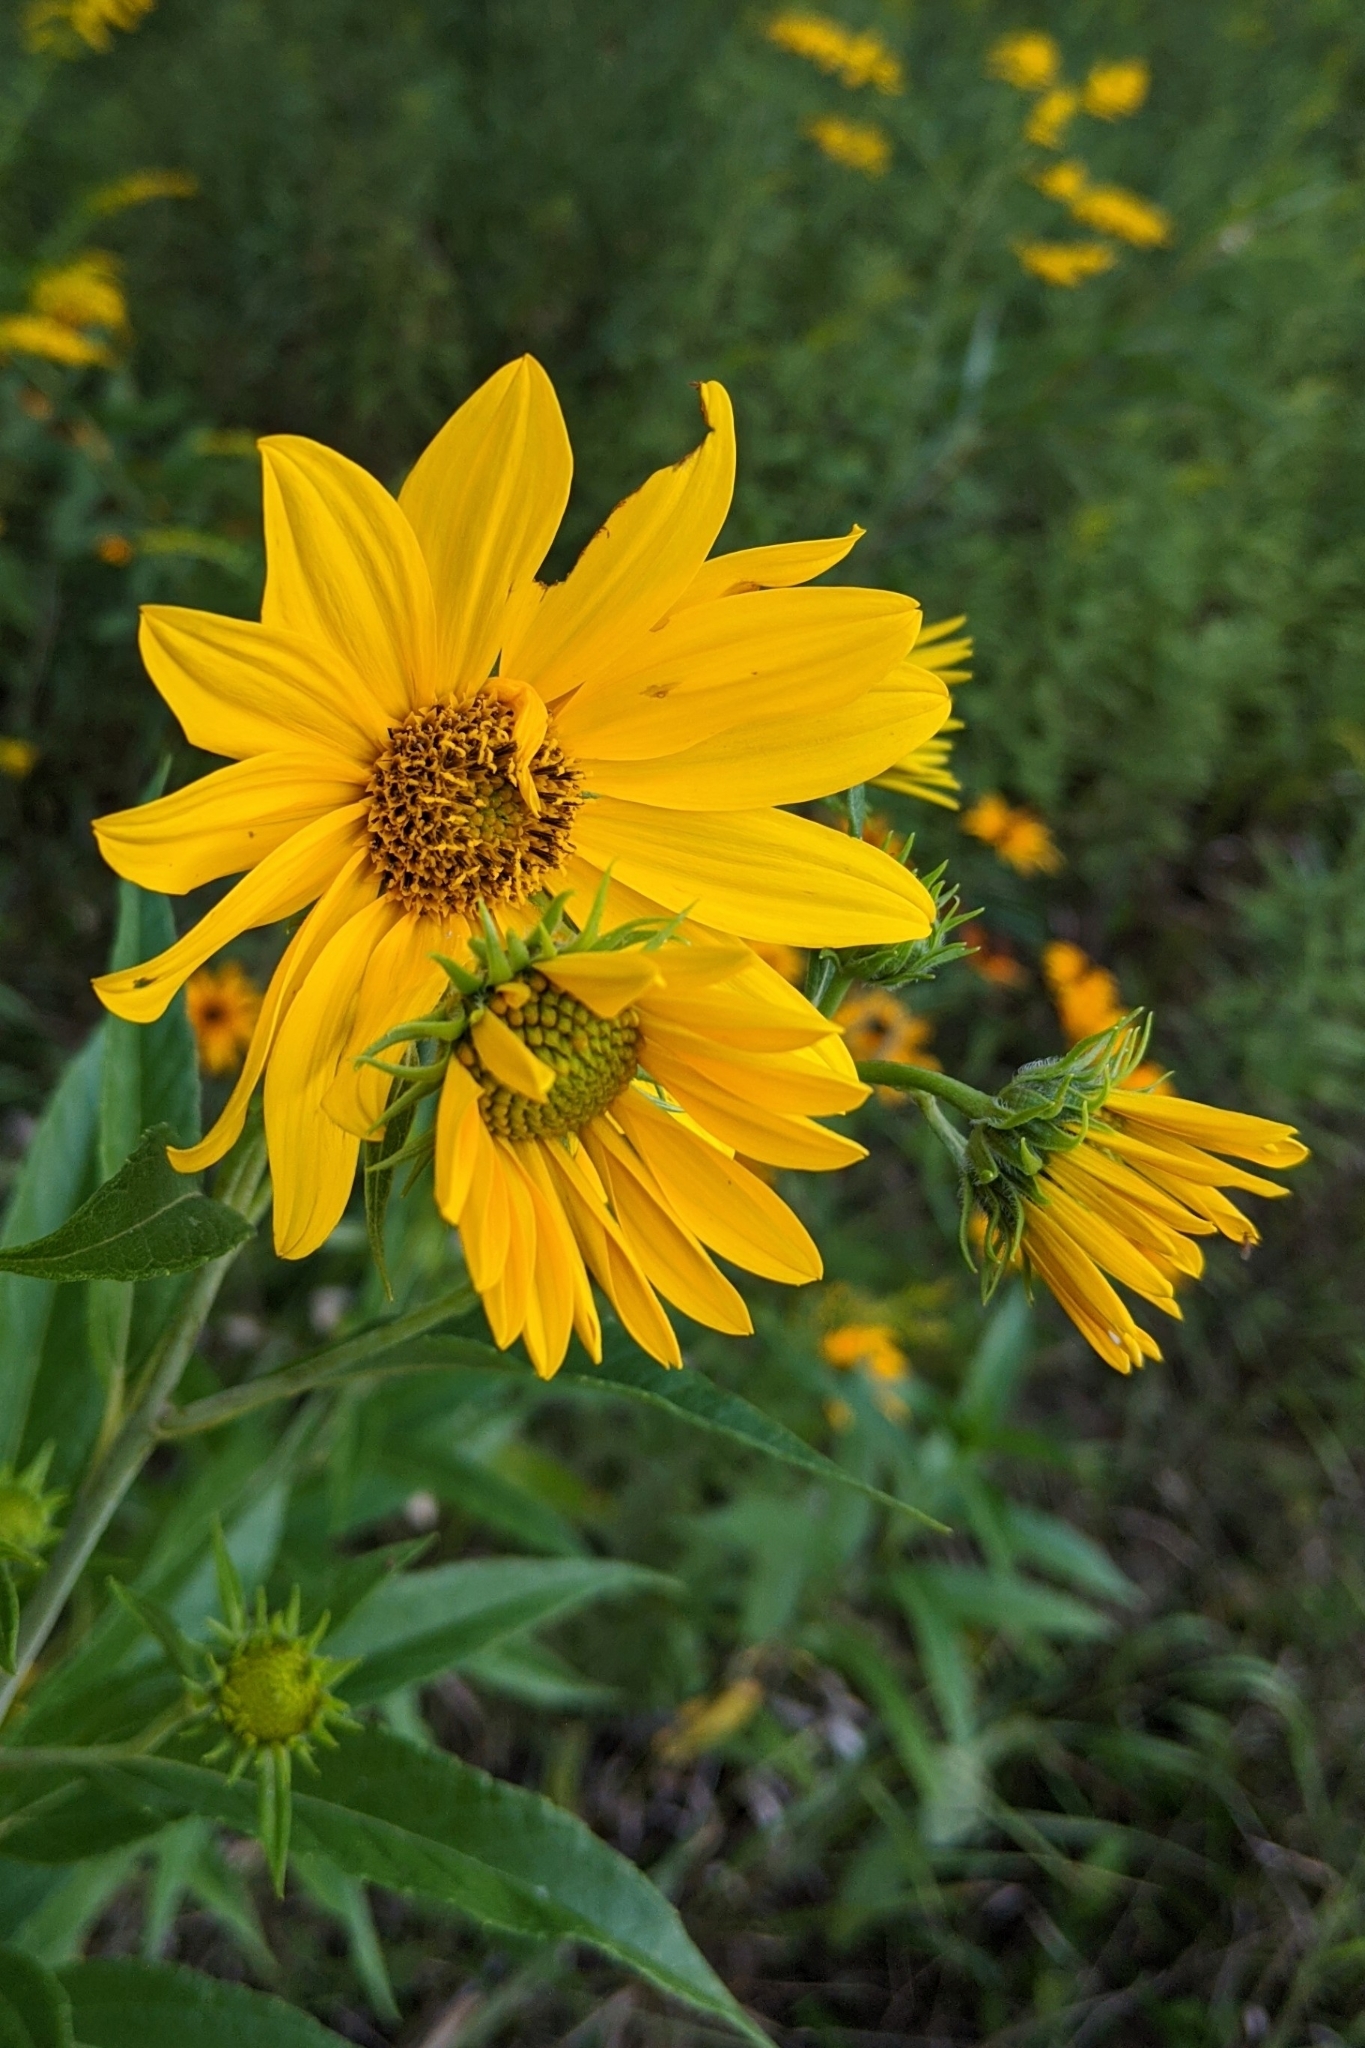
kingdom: Plantae
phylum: Tracheophyta
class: Magnoliopsida
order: Asterales
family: Asteraceae
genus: Helianthus
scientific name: Helianthus grosseserratus
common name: Sawtooth sunflower
